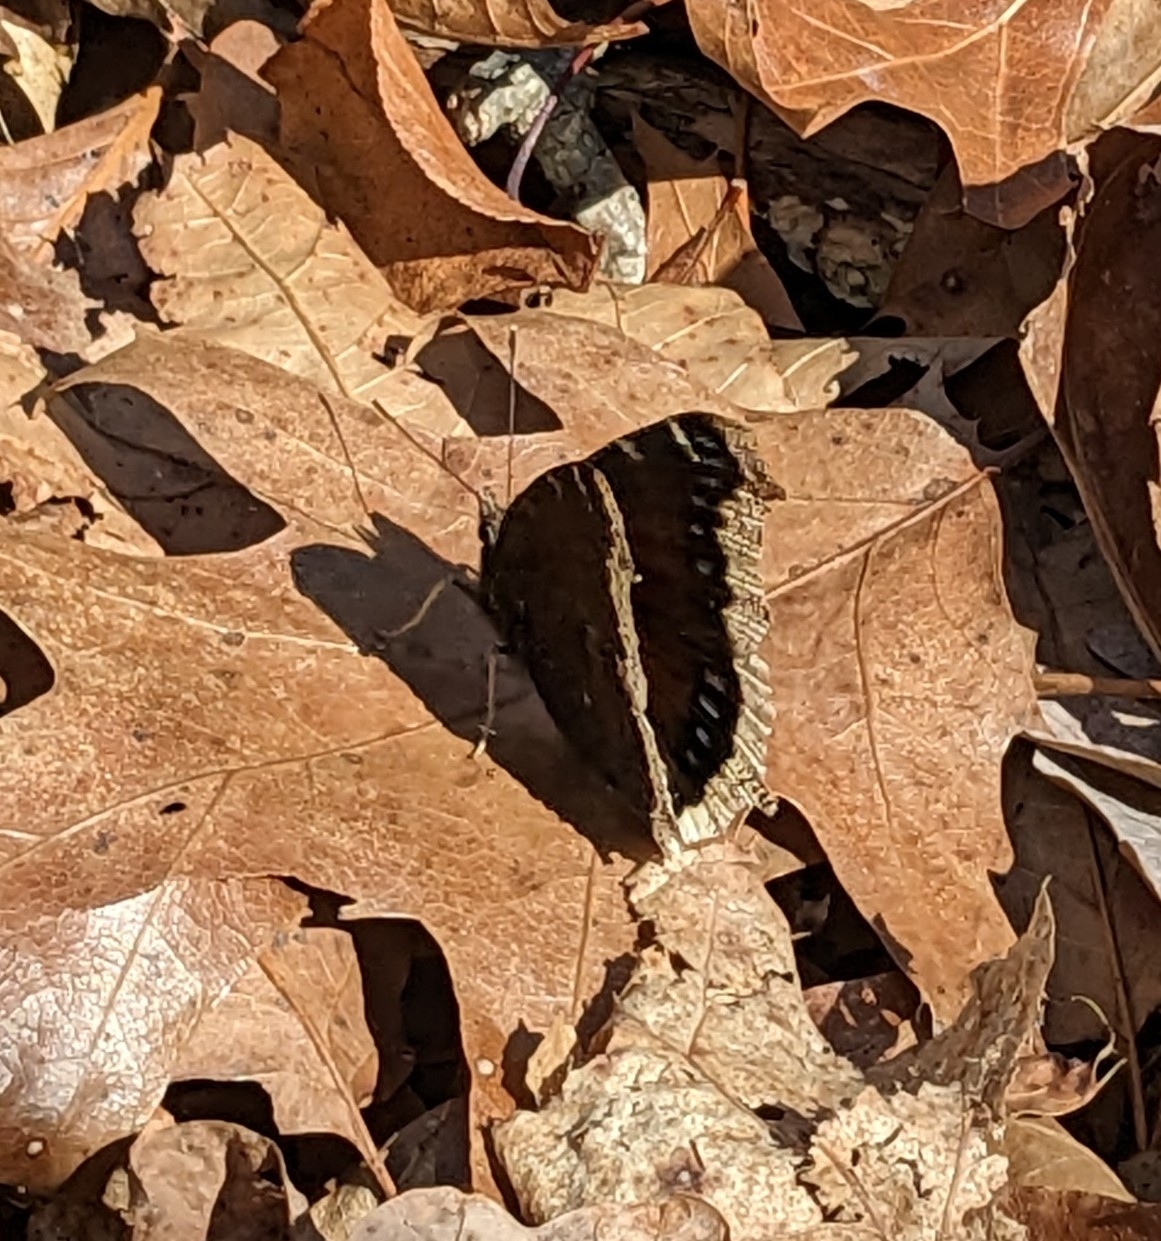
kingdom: Animalia
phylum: Arthropoda
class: Insecta
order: Lepidoptera
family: Nymphalidae
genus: Nymphalis
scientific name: Nymphalis antiopa
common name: Camberwell beauty
